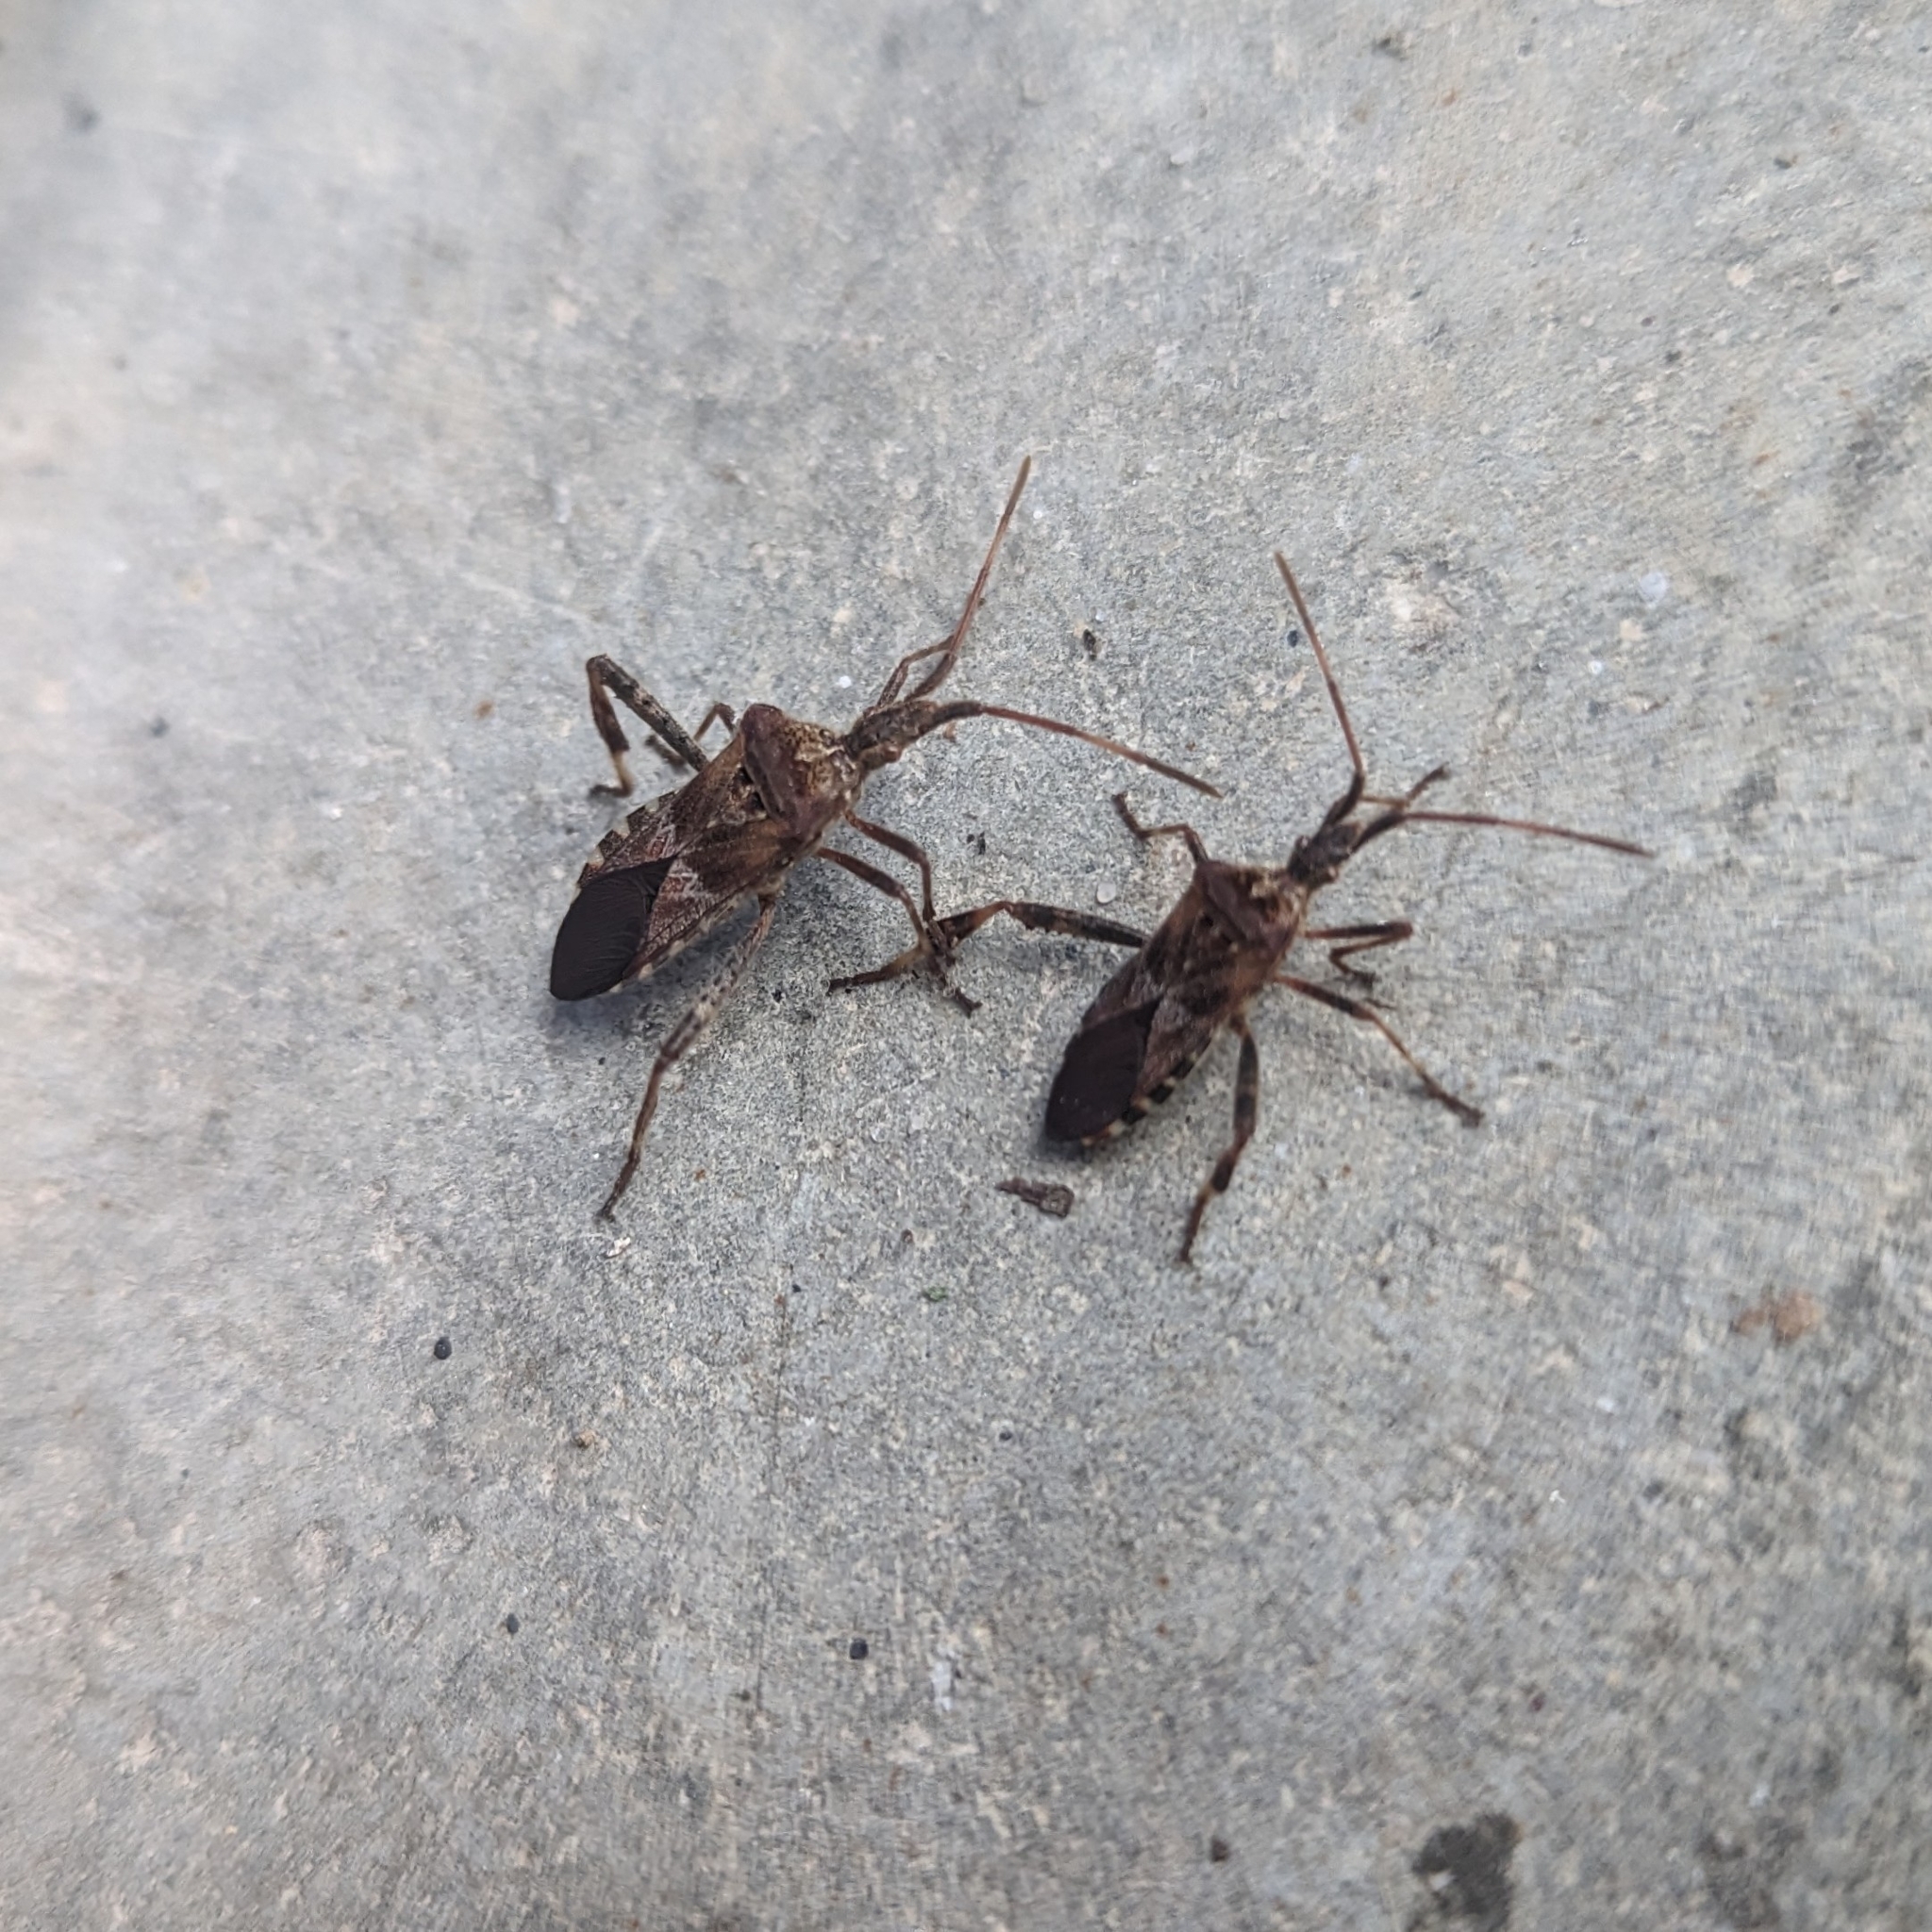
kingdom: Animalia
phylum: Arthropoda
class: Insecta
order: Hemiptera
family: Coreidae
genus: Leptoglossus
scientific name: Leptoglossus occidentalis
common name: Western conifer-seed bug
